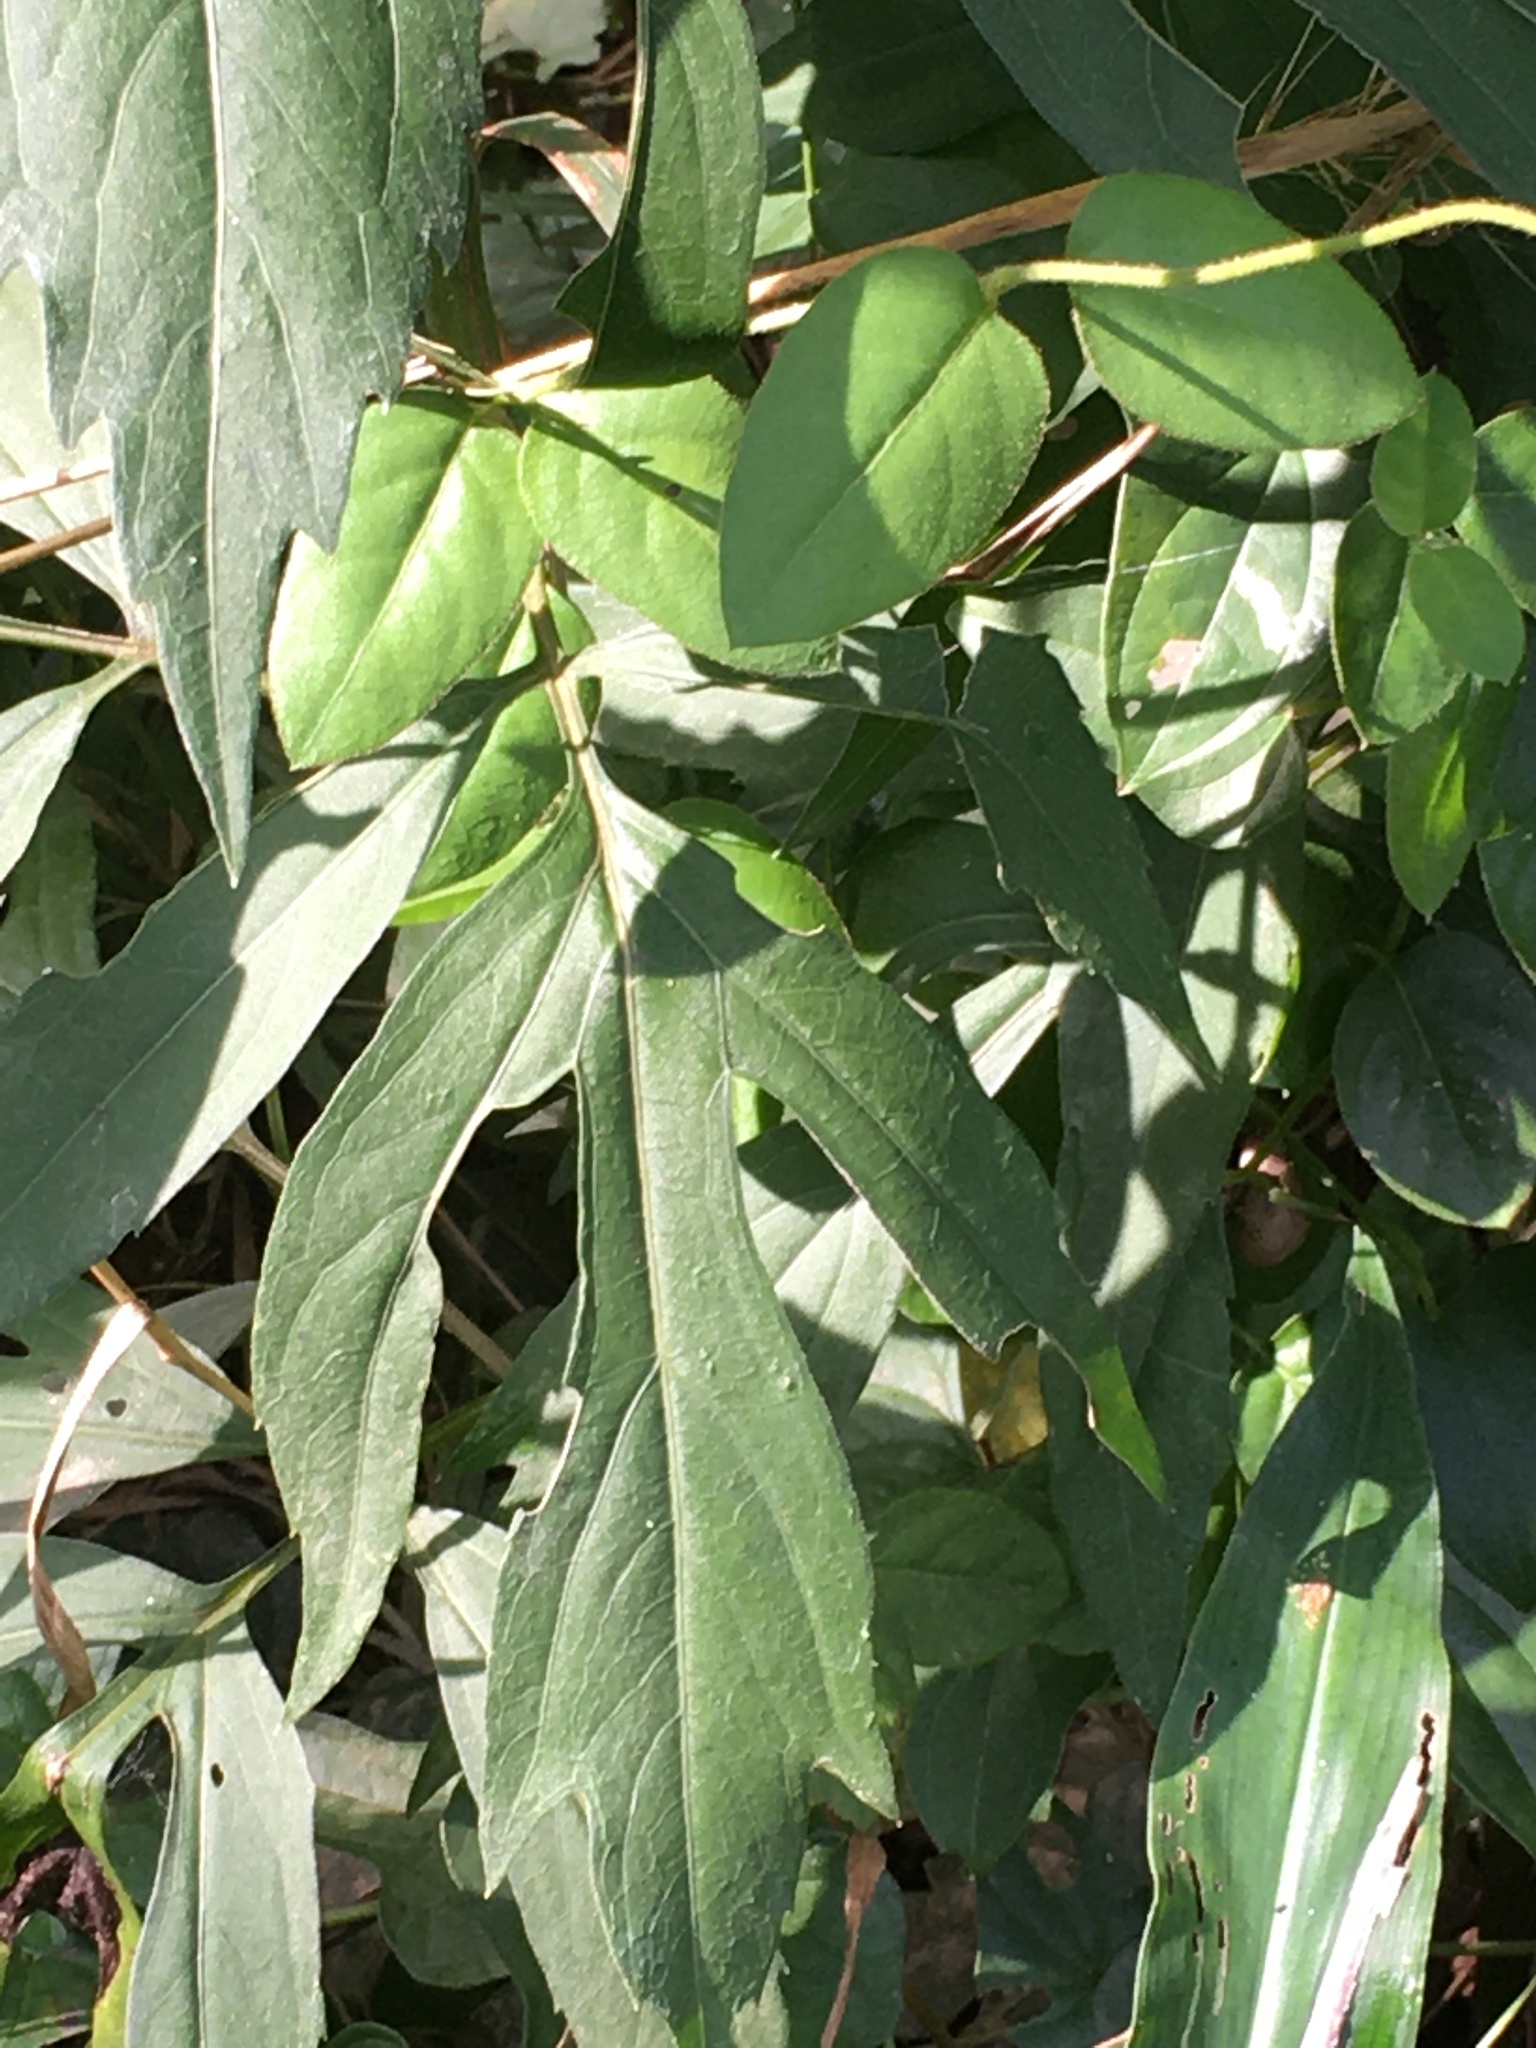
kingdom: Plantae
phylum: Tracheophyta
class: Magnoliopsida
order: Asterales
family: Asteraceae
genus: Rudbeckia
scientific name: Rudbeckia laciniata
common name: Coneflower
